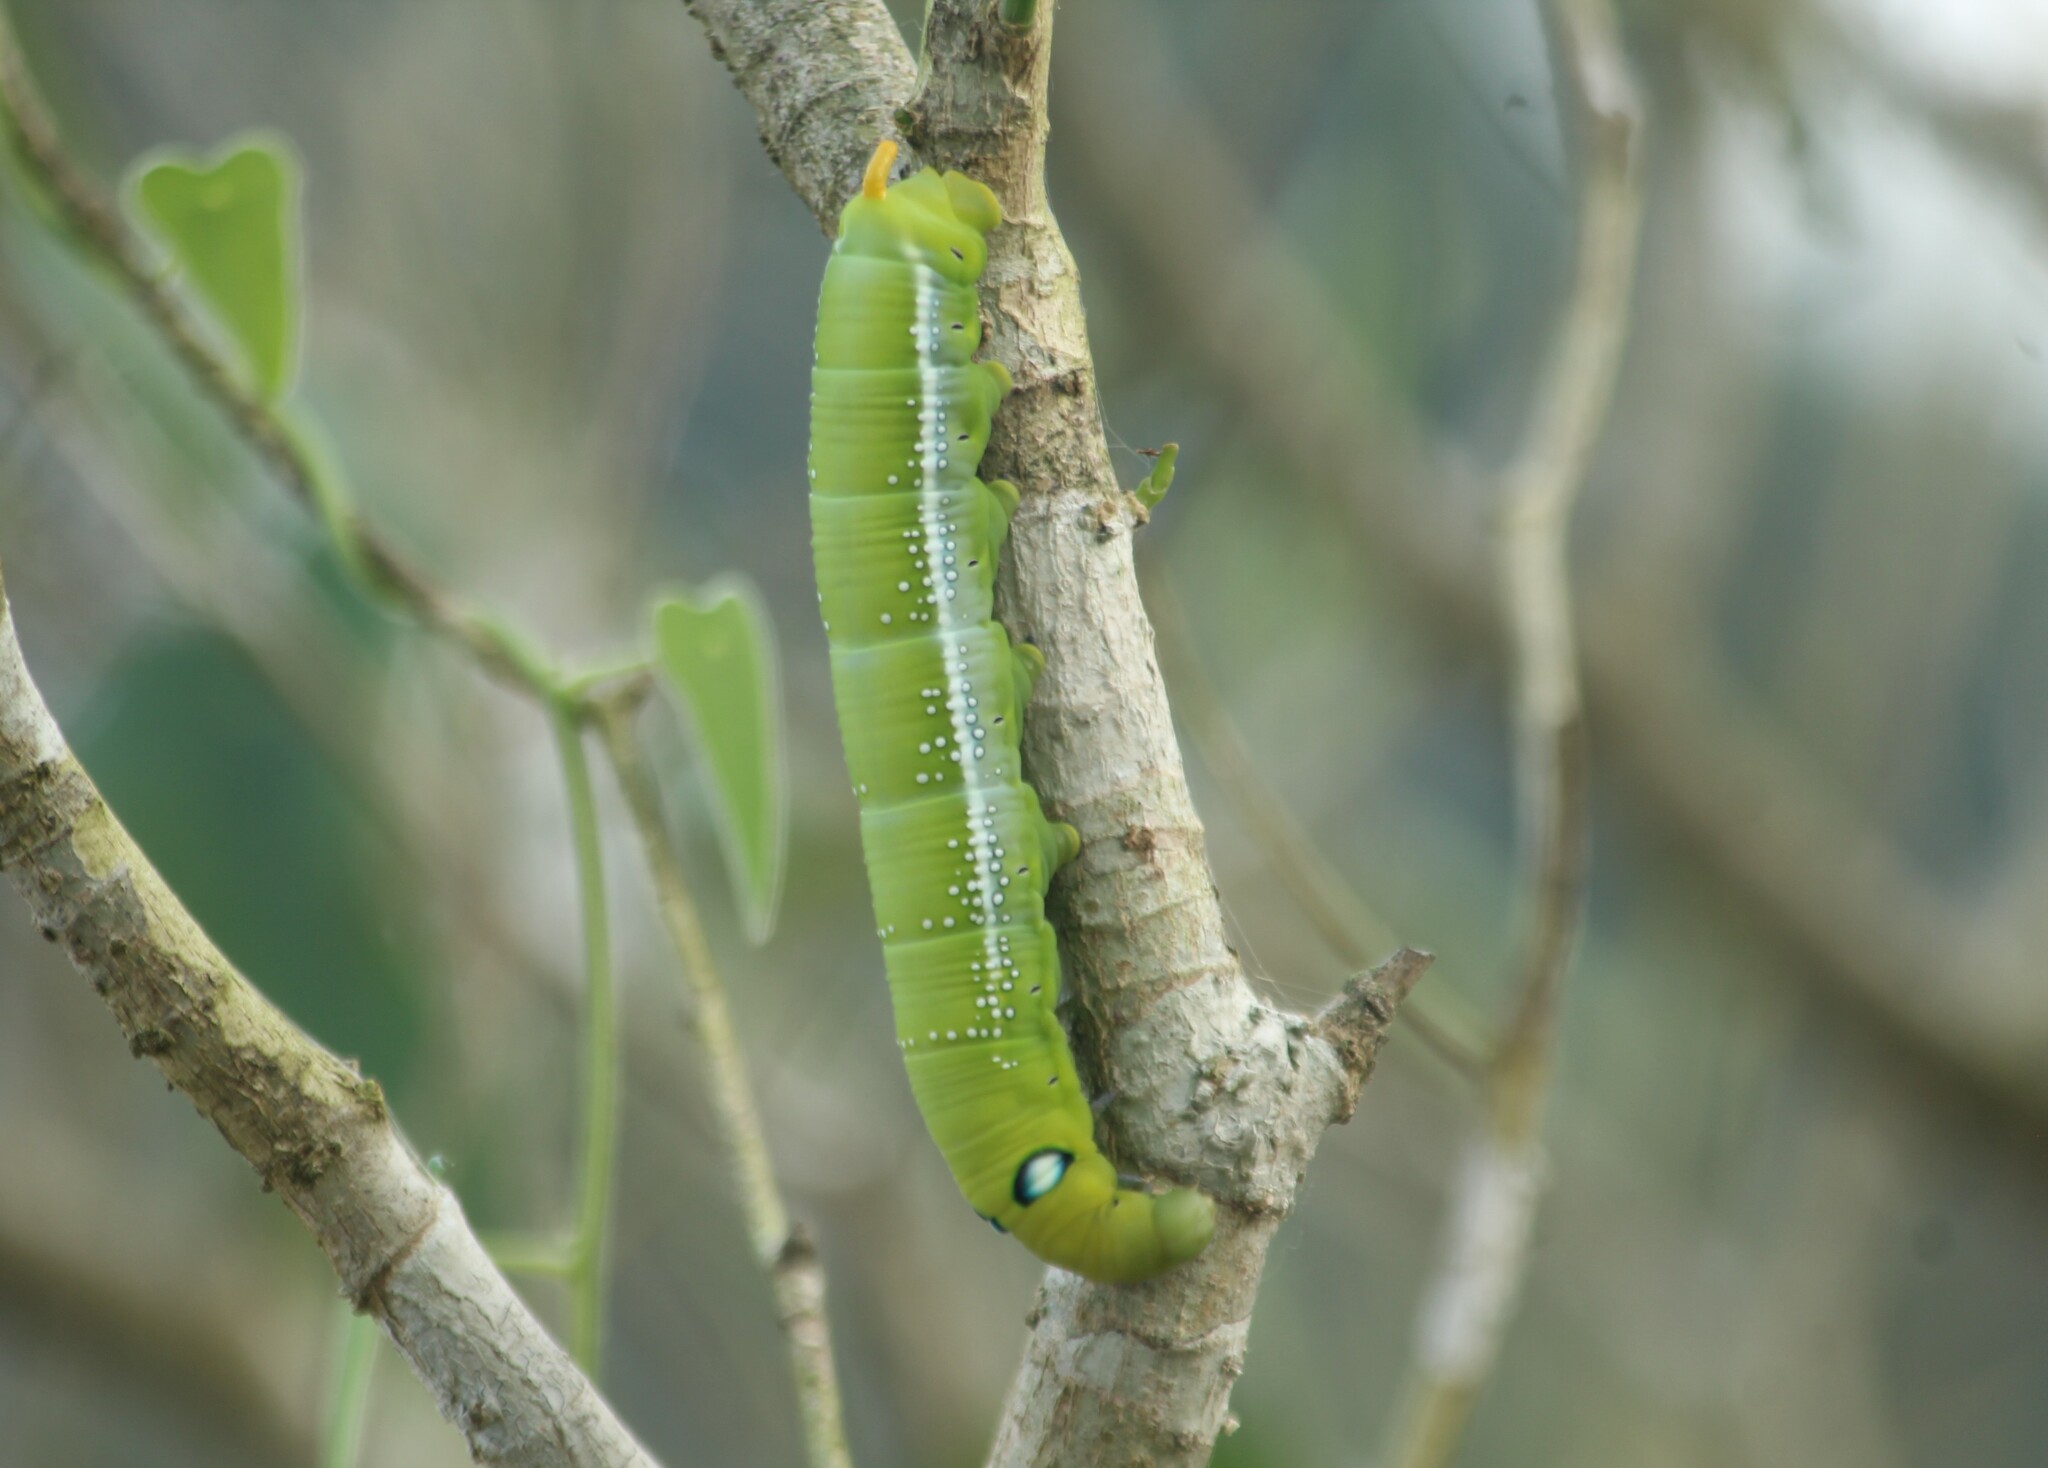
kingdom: Animalia
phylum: Arthropoda
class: Insecta
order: Lepidoptera
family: Sphingidae
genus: Daphnis
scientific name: Daphnis nerii
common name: Oleander hawk-moth
